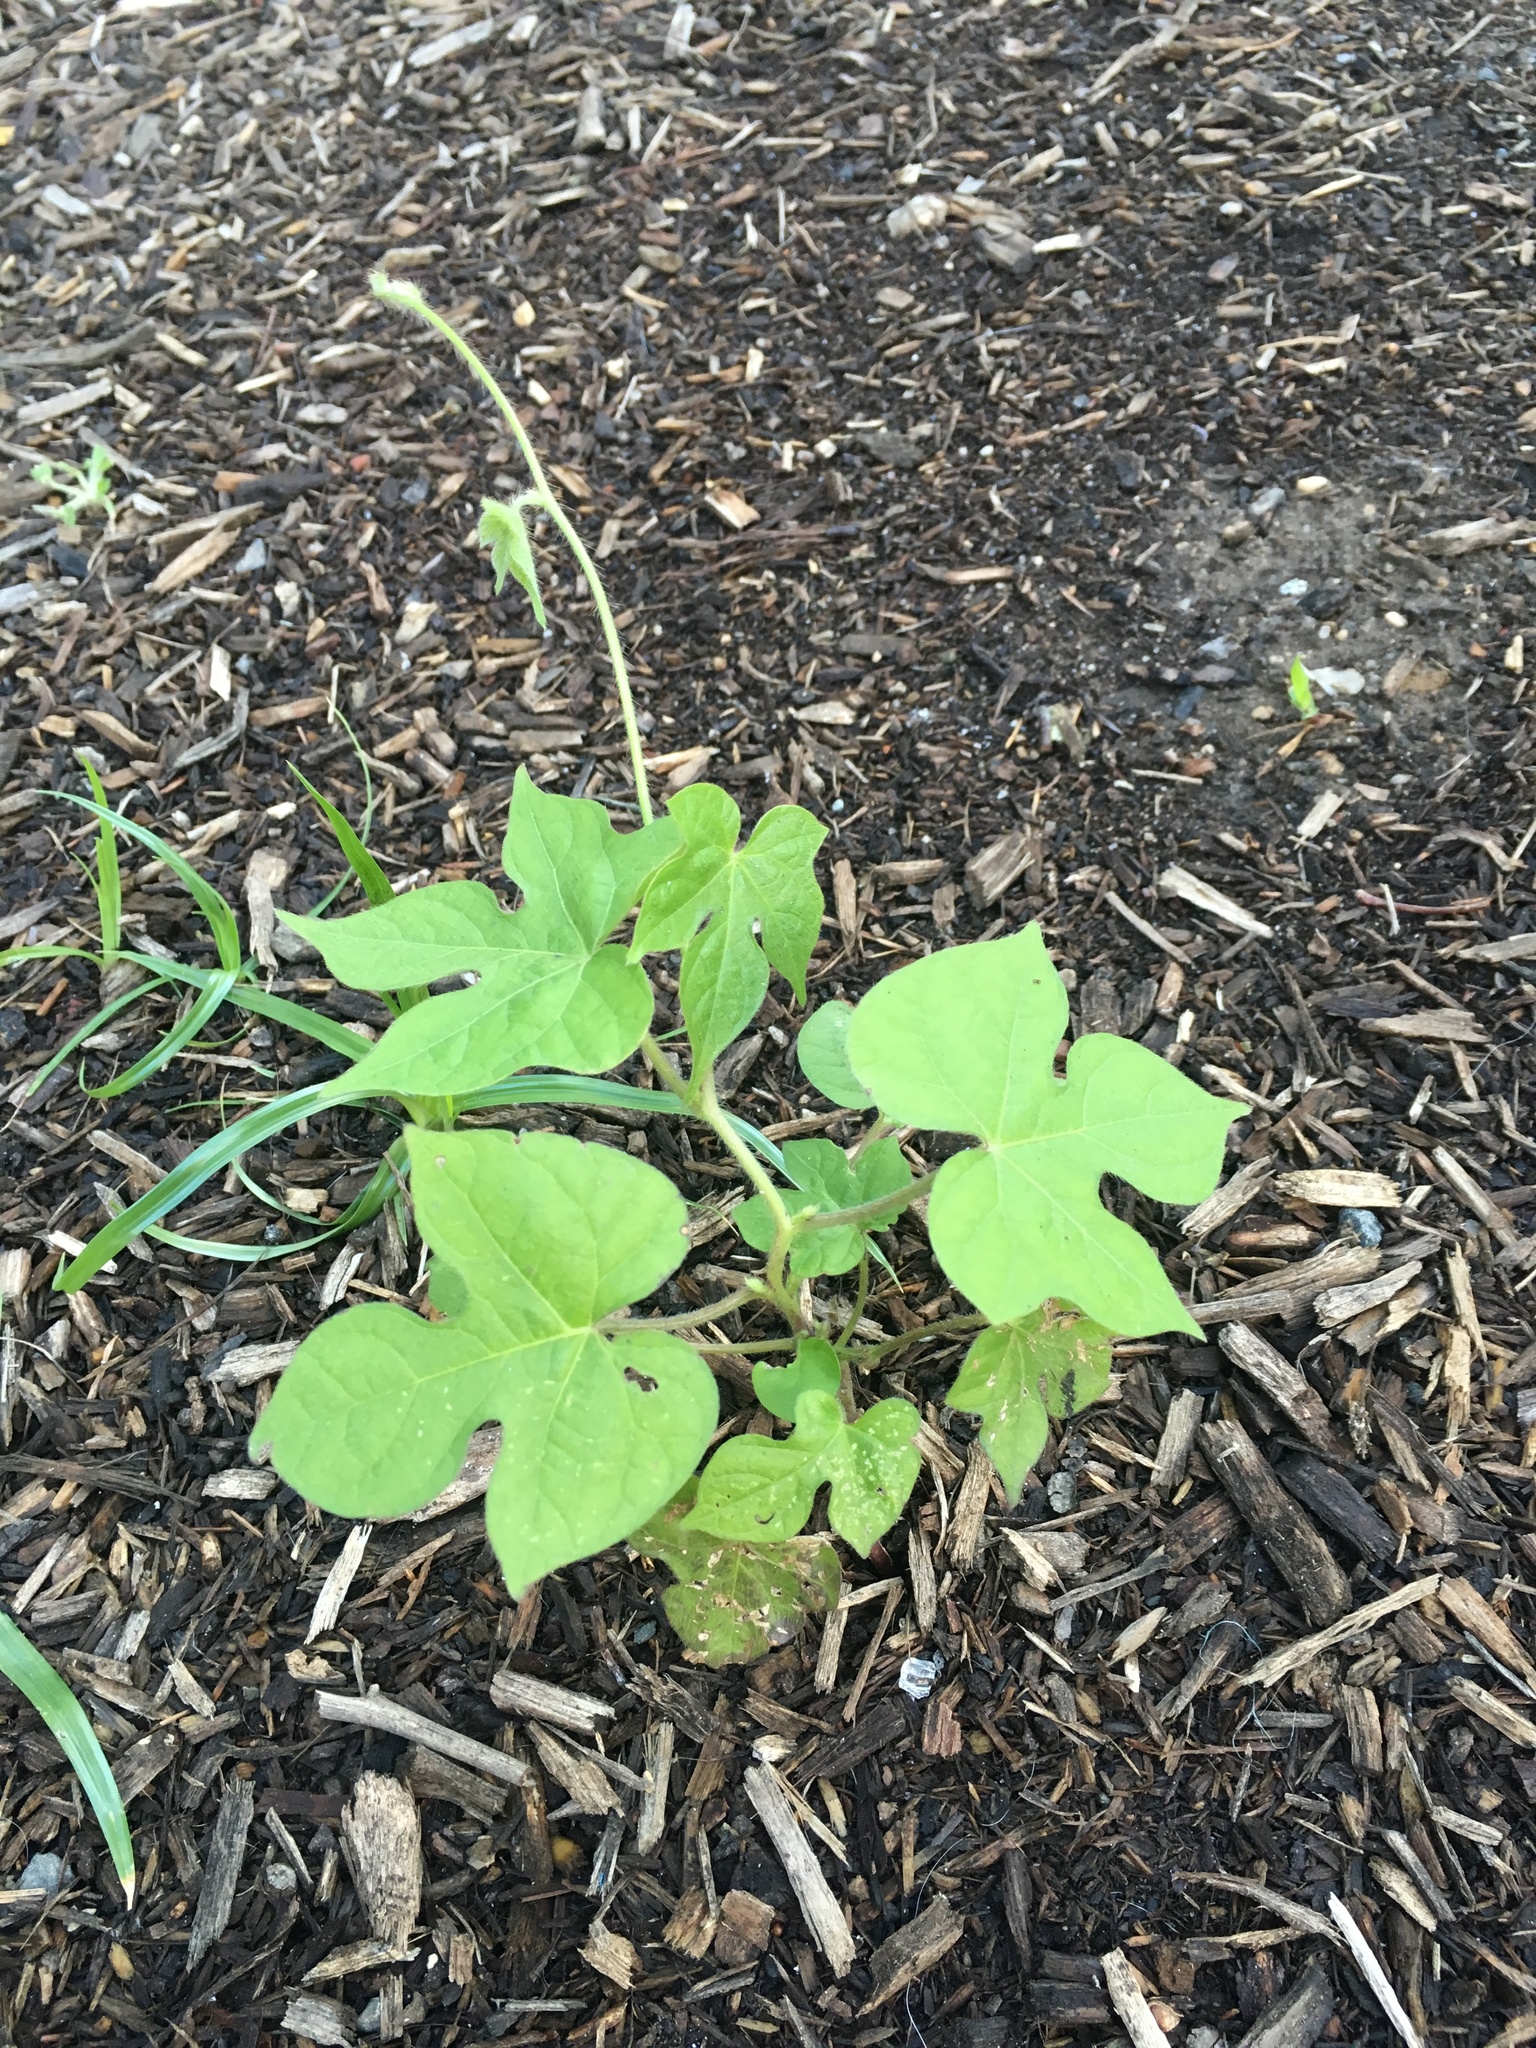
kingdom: Plantae
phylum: Tracheophyta
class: Magnoliopsida
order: Solanales
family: Convolvulaceae
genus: Ipomoea
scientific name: Ipomoea hederacea
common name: Ivy-leaved morning-glory
